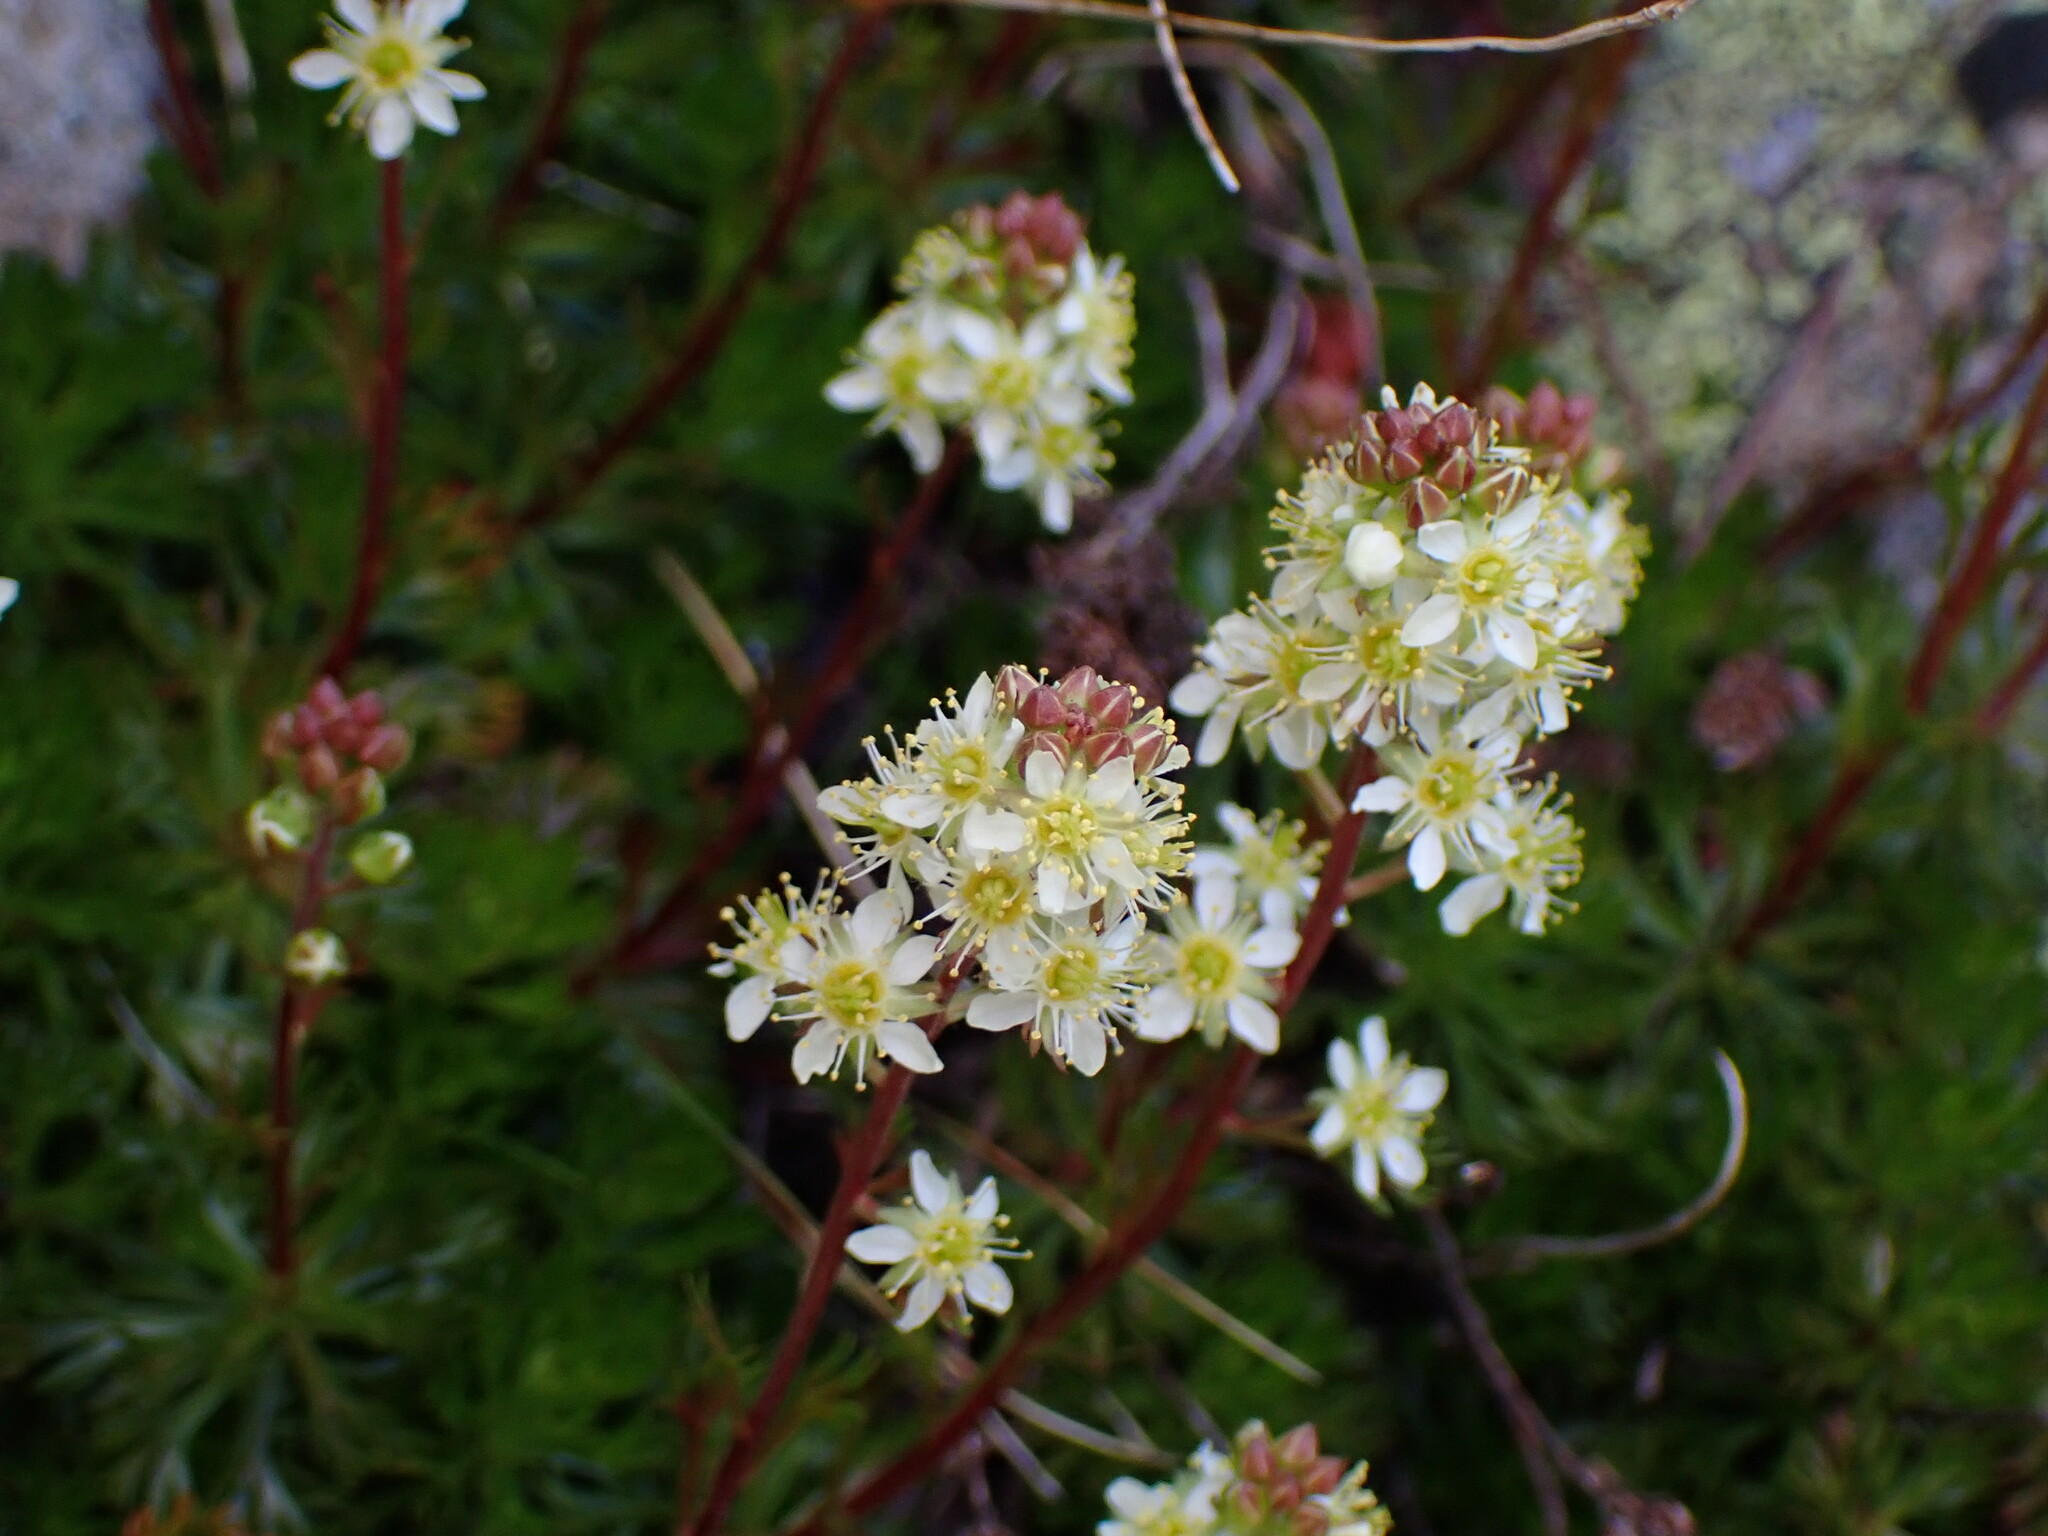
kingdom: Plantae
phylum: Tracheophyta
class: Magnoliopsida
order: Rosales
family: Rosaceae
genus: Luetkea
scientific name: Luetkea pectinata
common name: Partridgefoot
